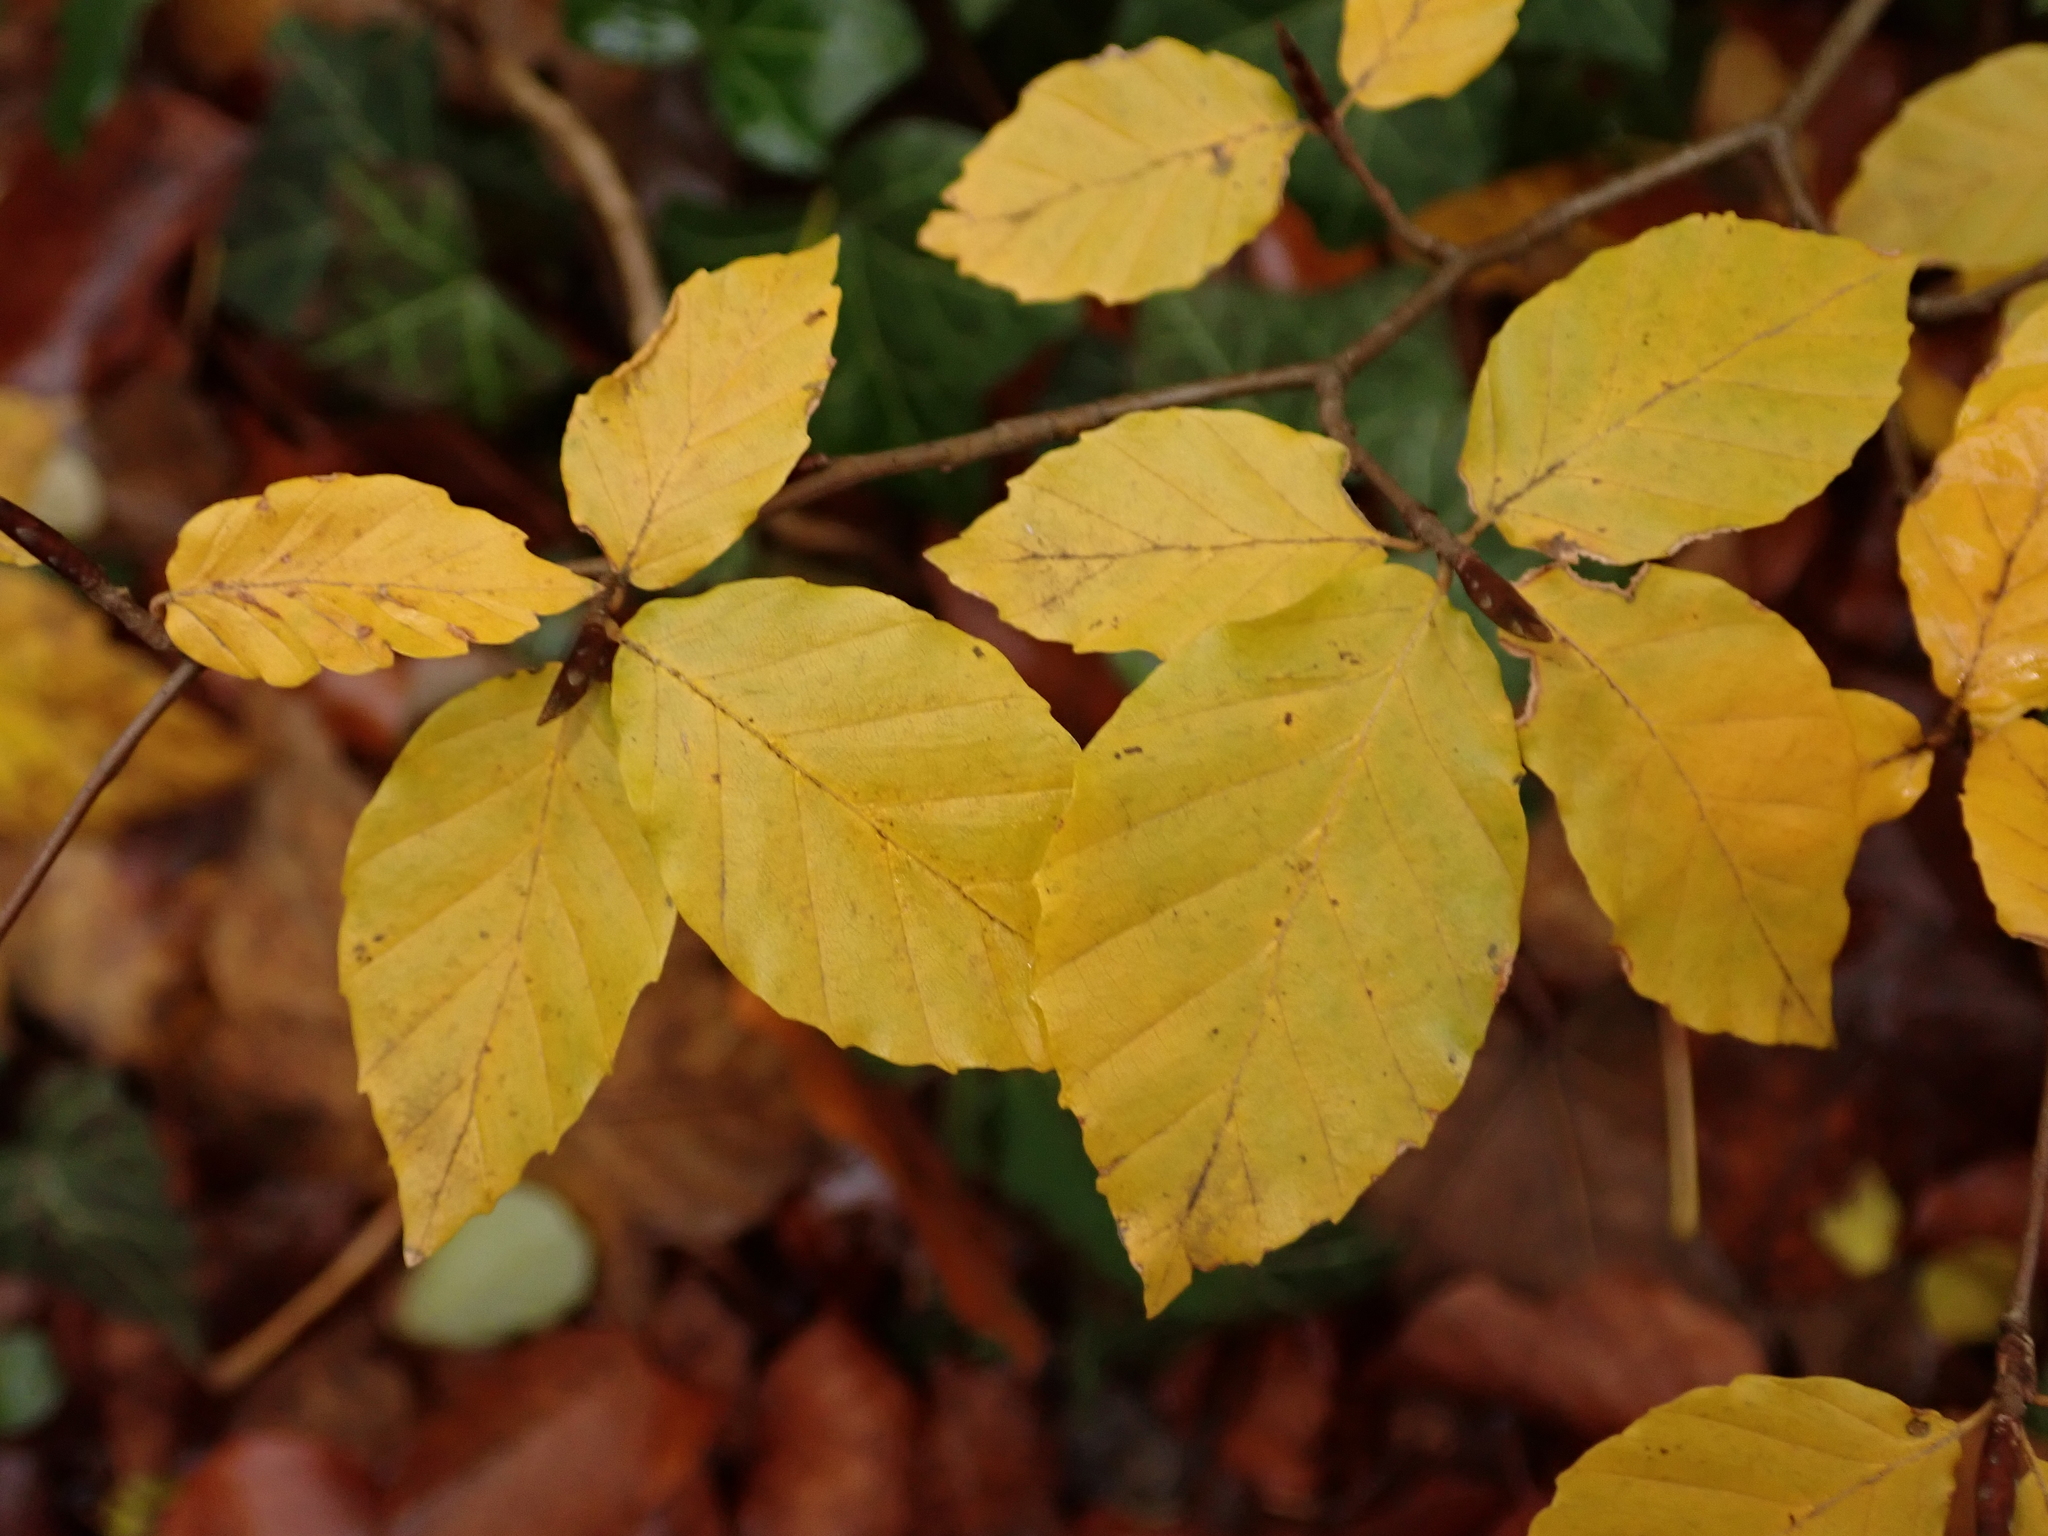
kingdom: Plantae
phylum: Tracheophyta
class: Magnoliopsida
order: Fagales
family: Fagaceae
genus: Fagus
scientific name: Fagus sylvatica
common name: Beech
